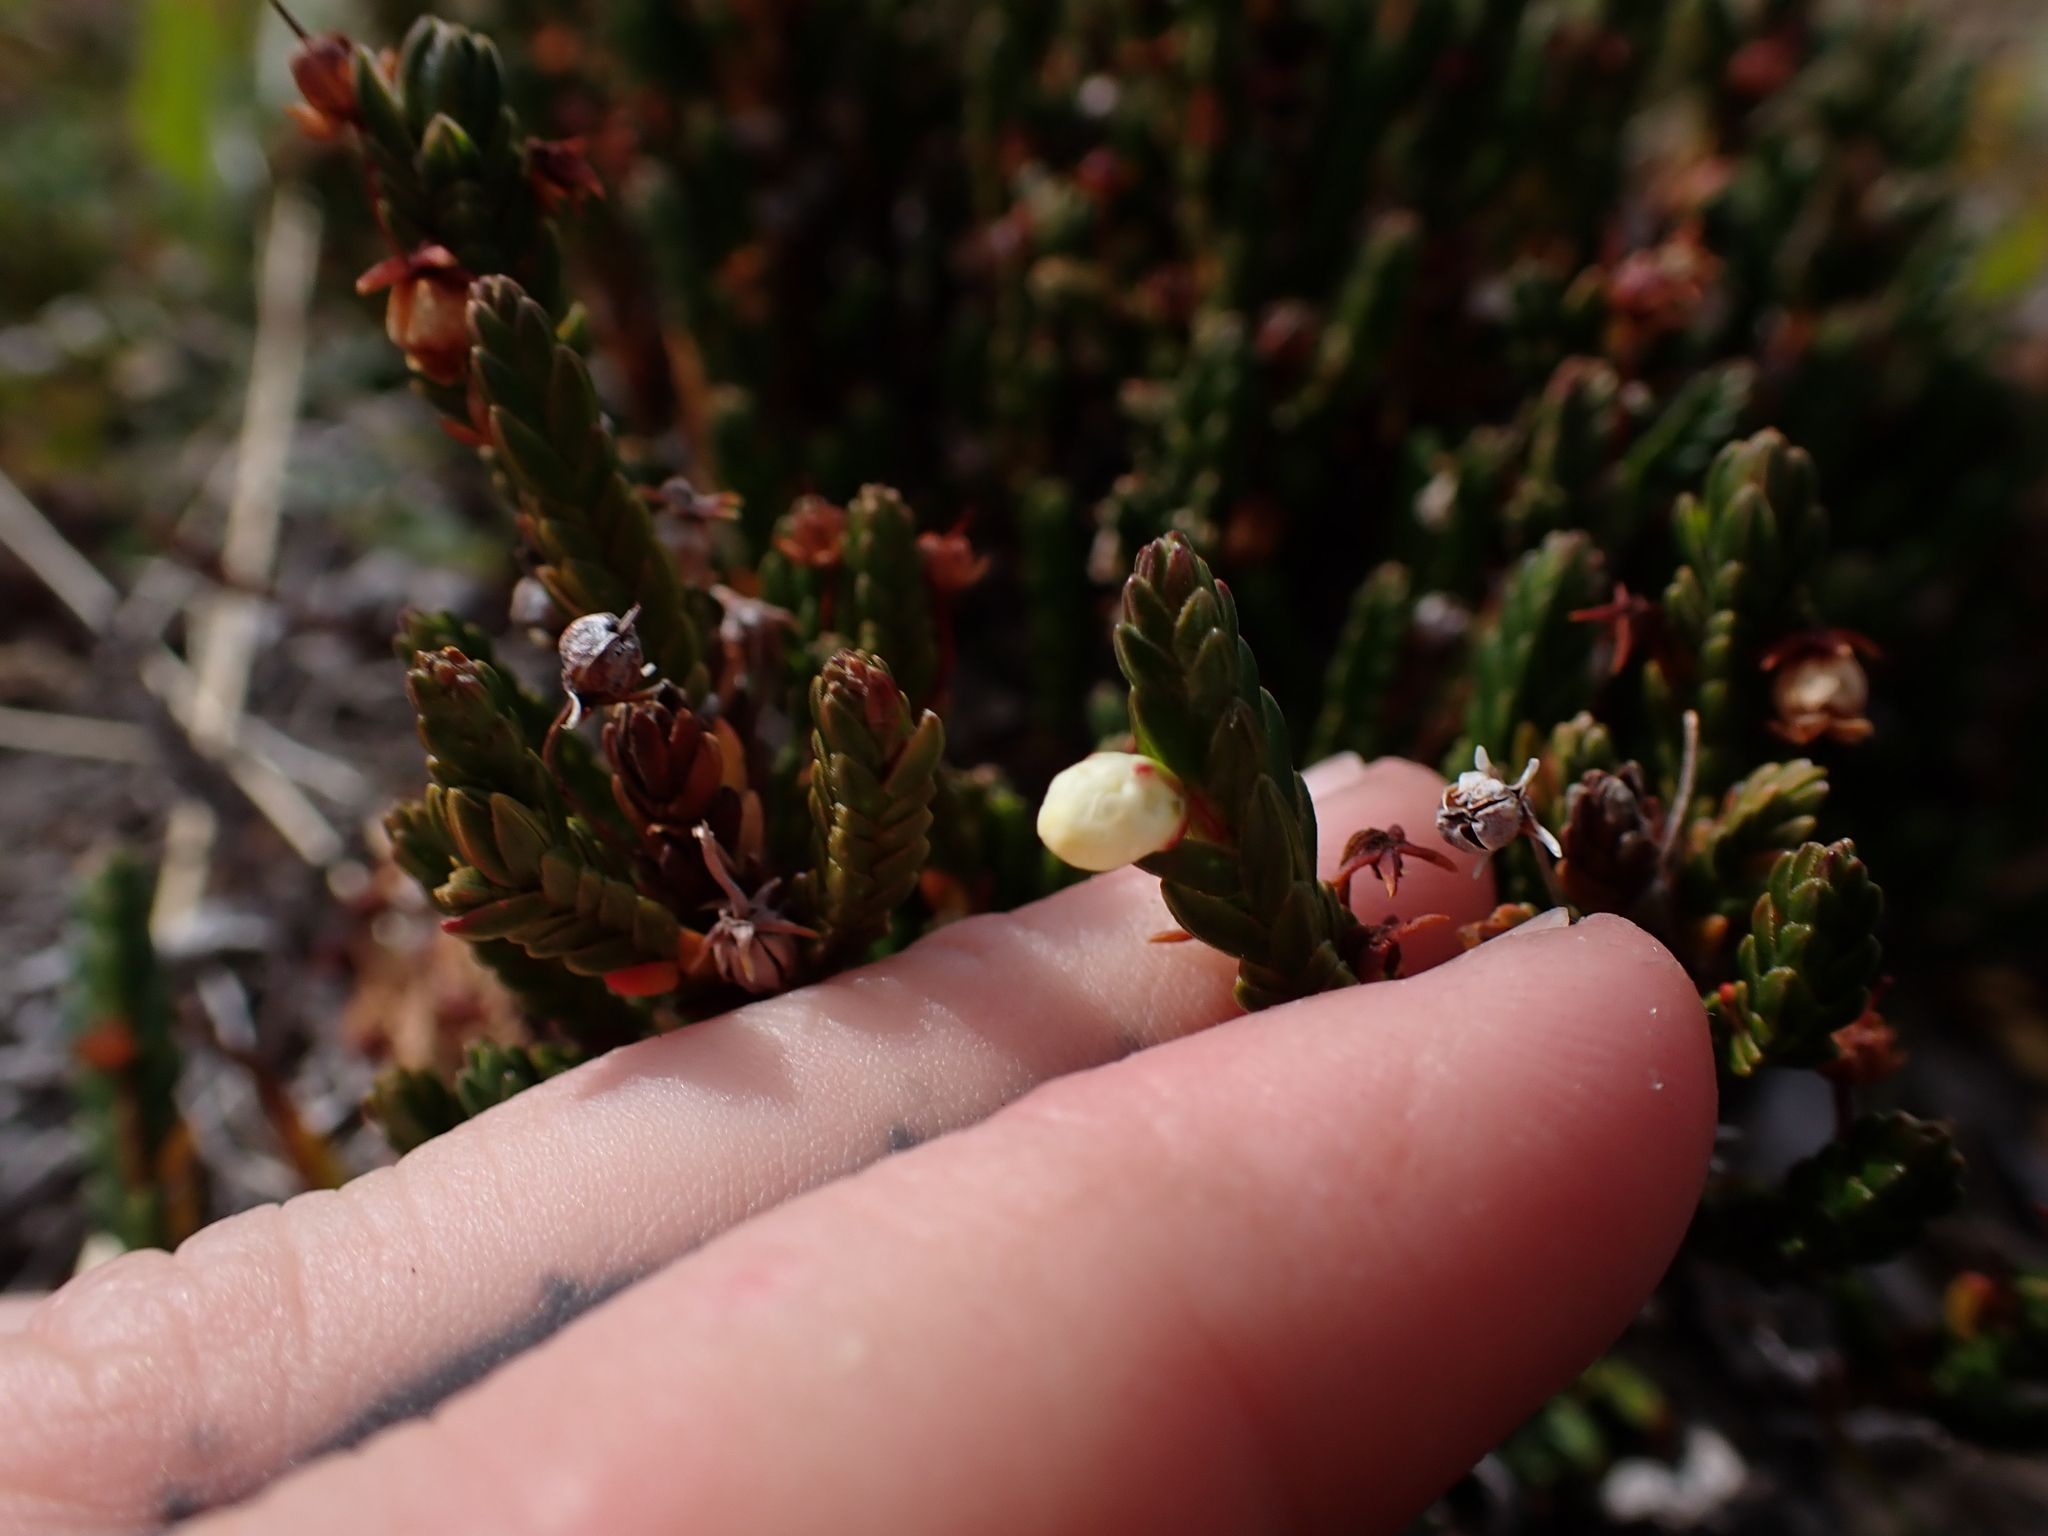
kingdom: Plantae
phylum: Tracheophyta
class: Magnoliopsida
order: Ericales
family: Ericaceae
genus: Cassiope
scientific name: Cassiope tetragona
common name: Arctic bell heather
